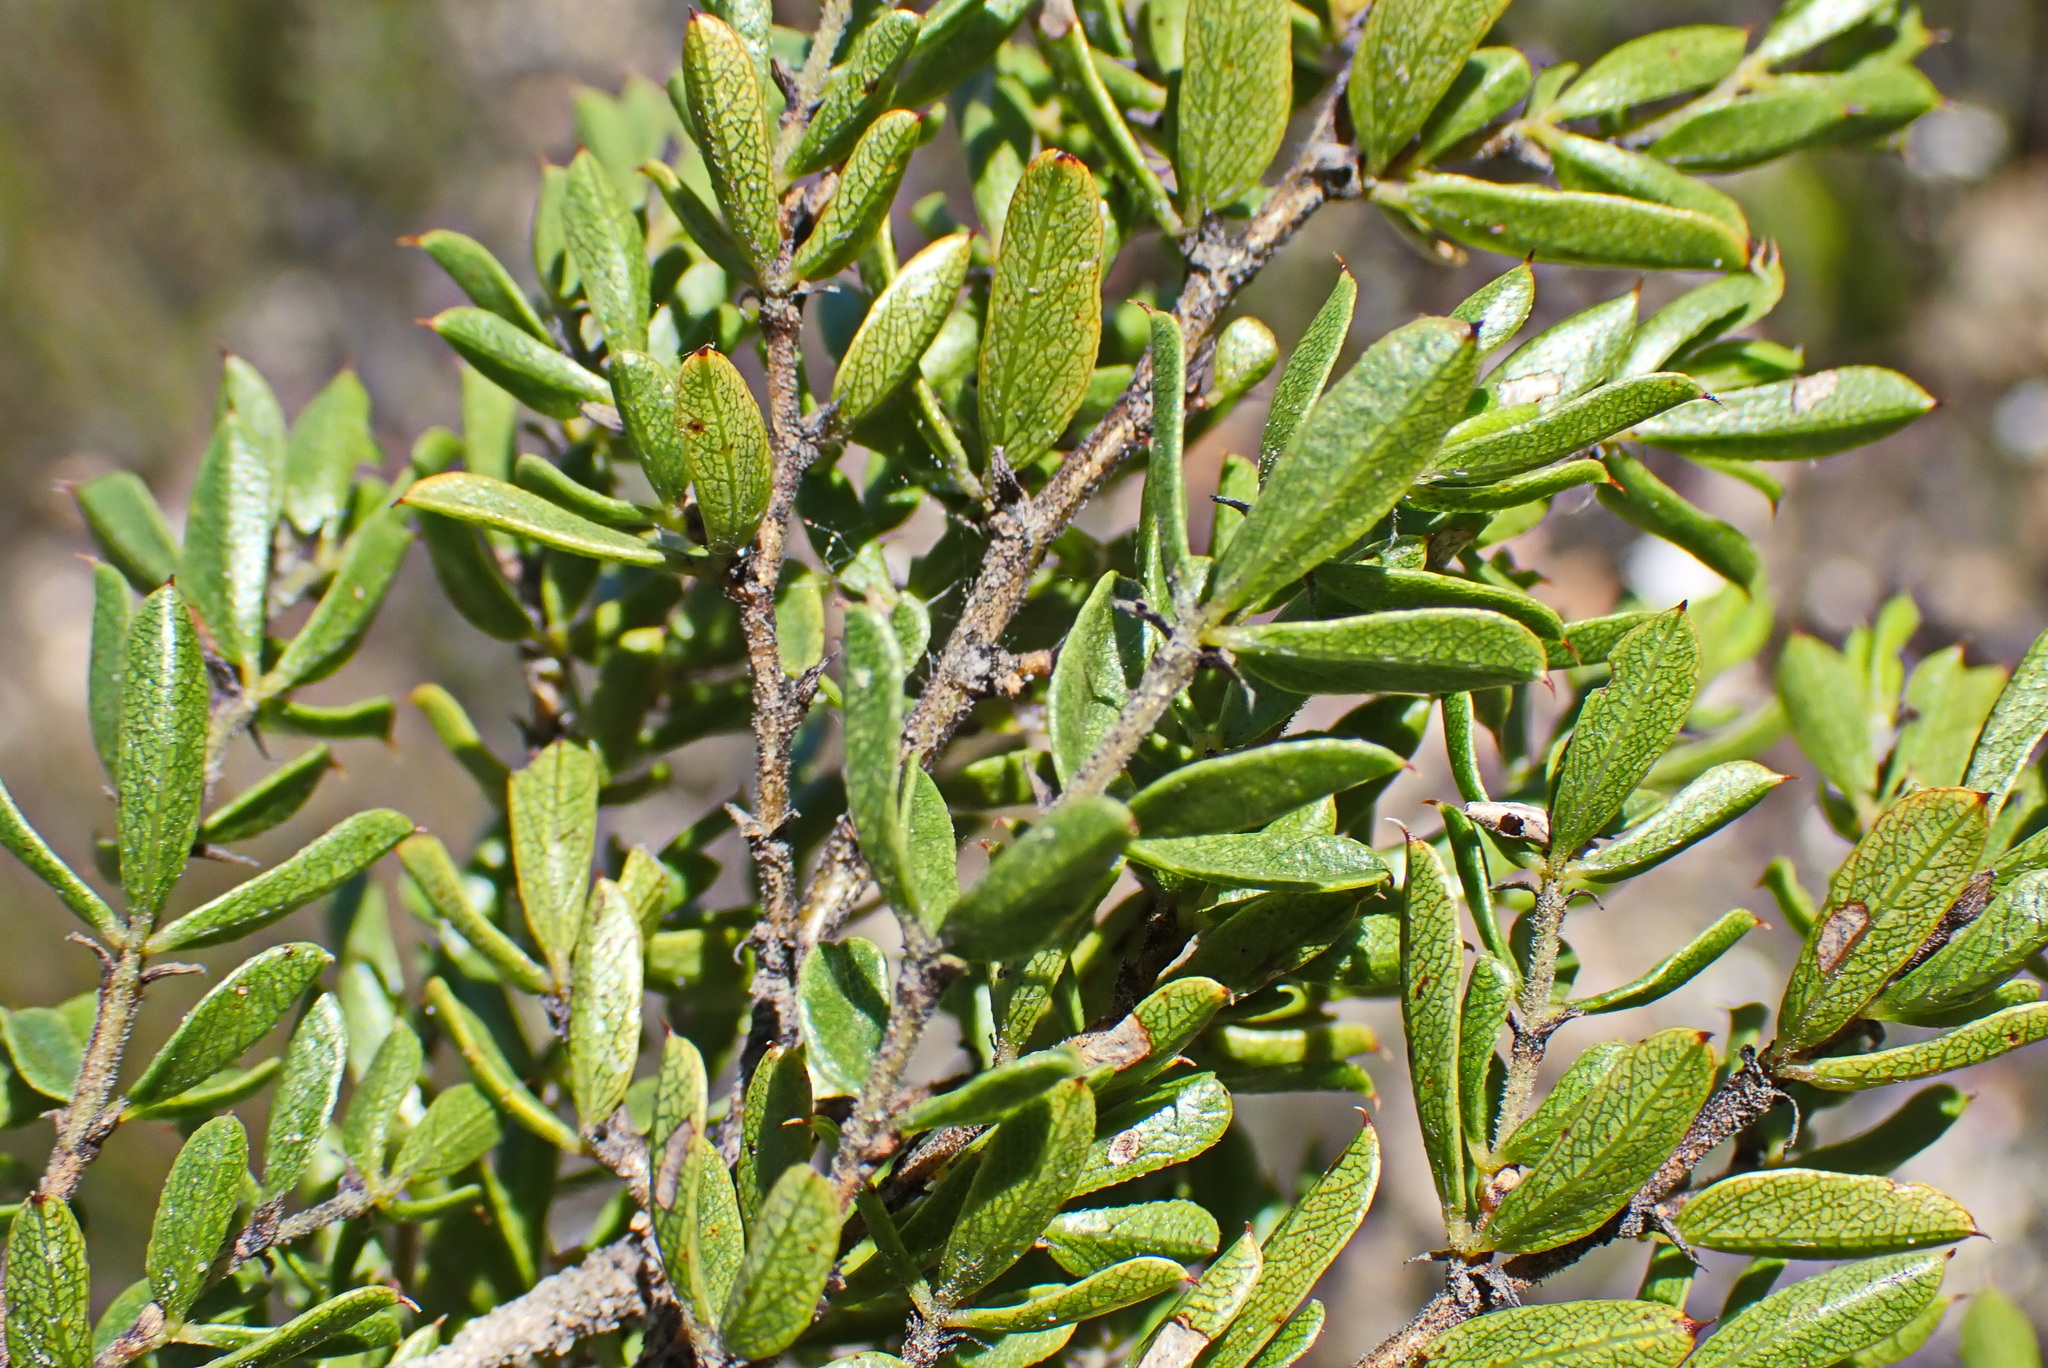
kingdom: Plantae
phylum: Tracheophyta
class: Magnoliopsida
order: Fabales
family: Fabaceae
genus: Psoralea
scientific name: Psoralea heterosepala
